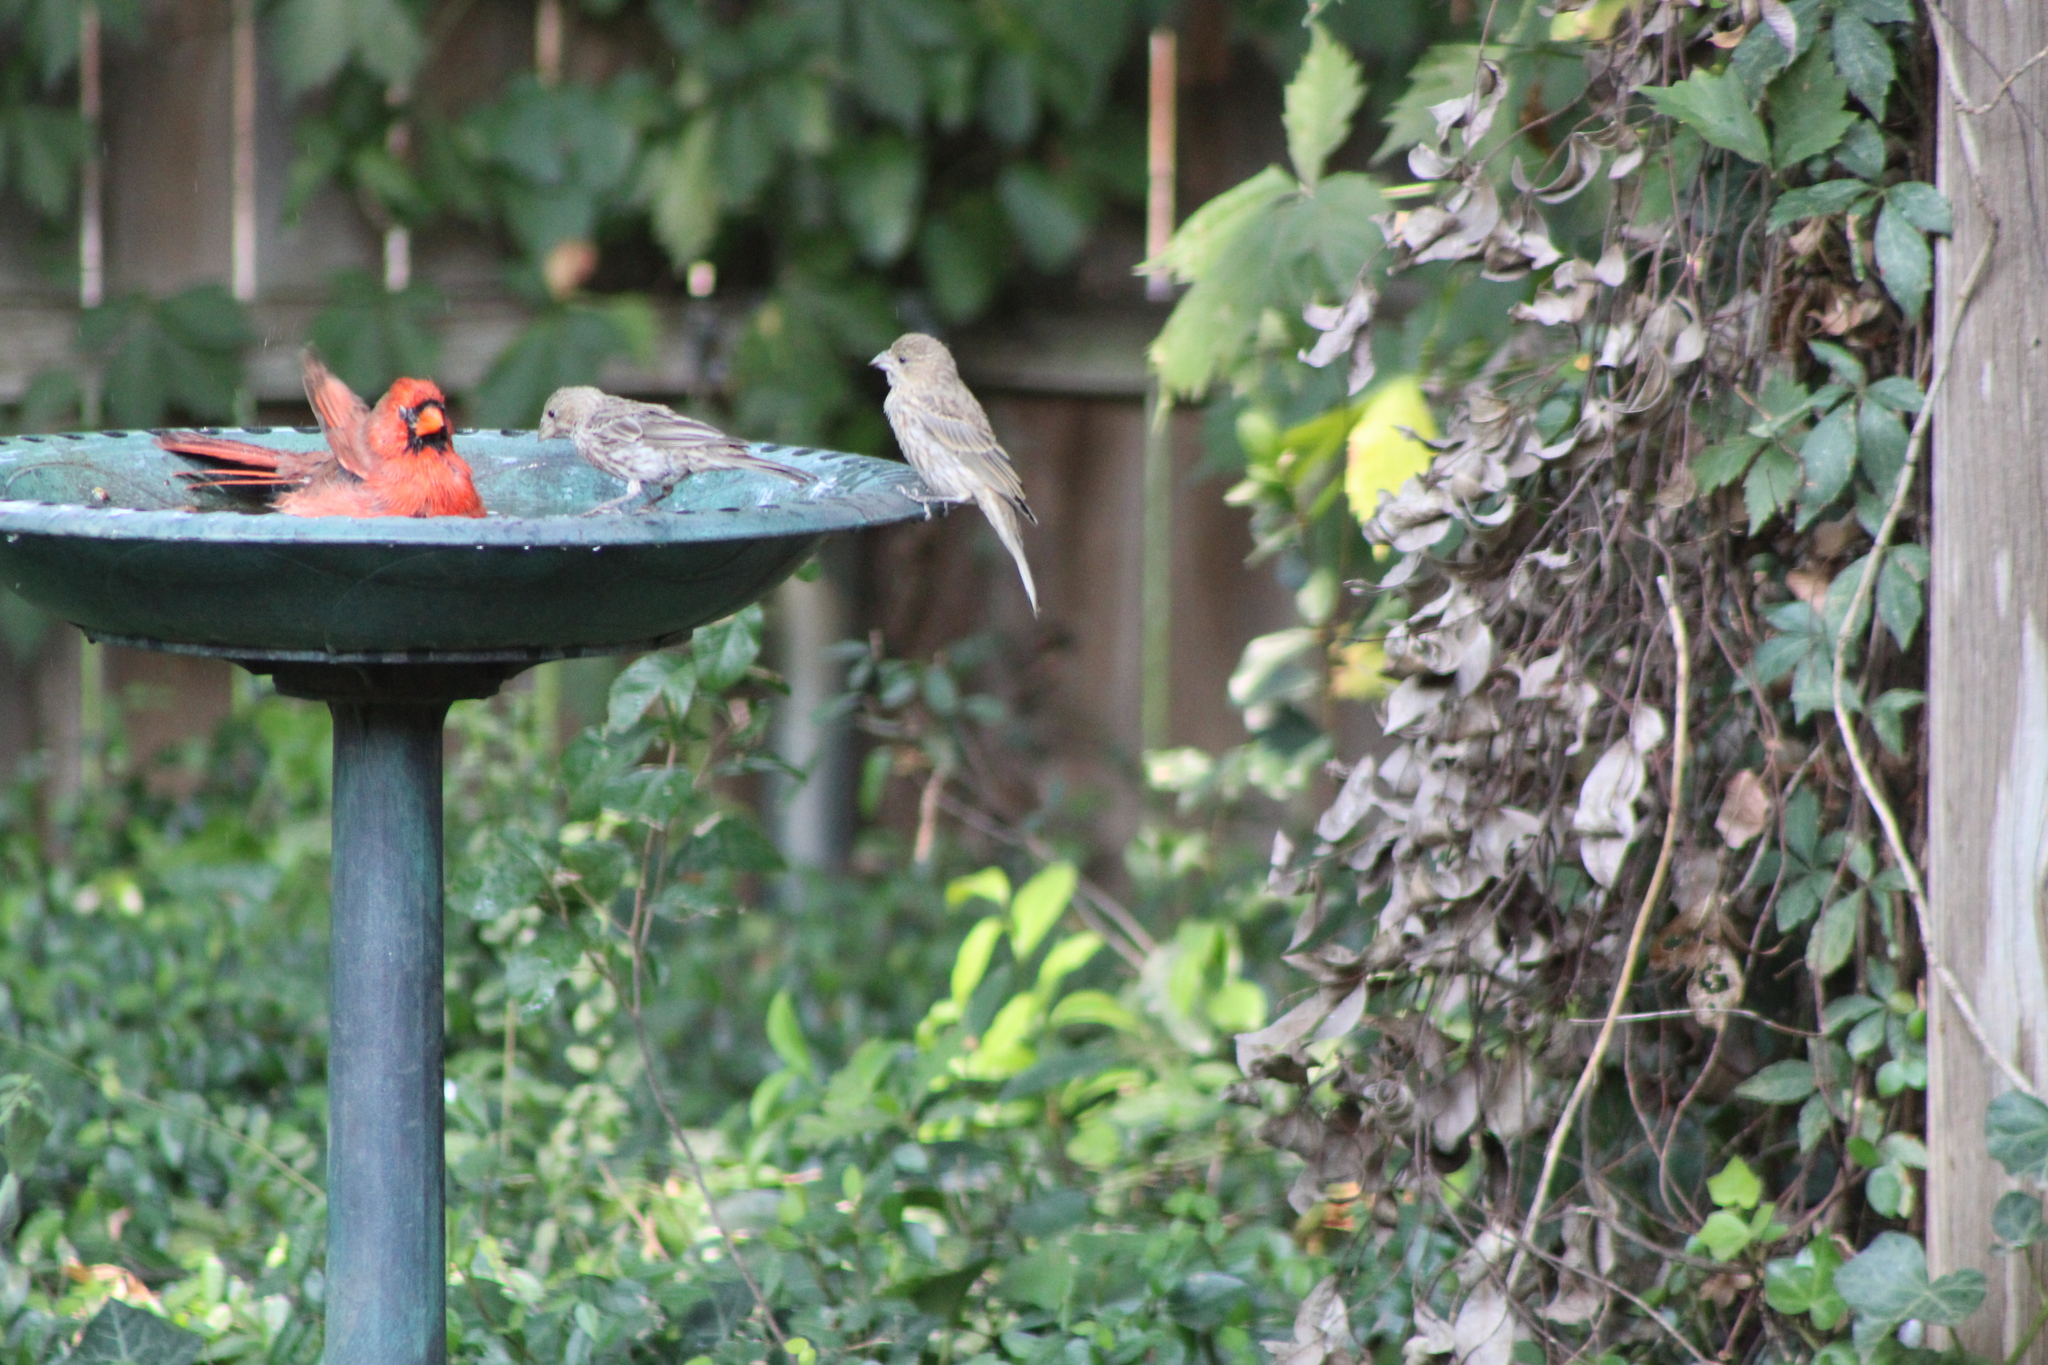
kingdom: Animalia
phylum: Chordata
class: Aves
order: Passeriformes
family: Cardinalidae
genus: Cardinalis
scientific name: Cardinalis cardinalis
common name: Northern cardinal
